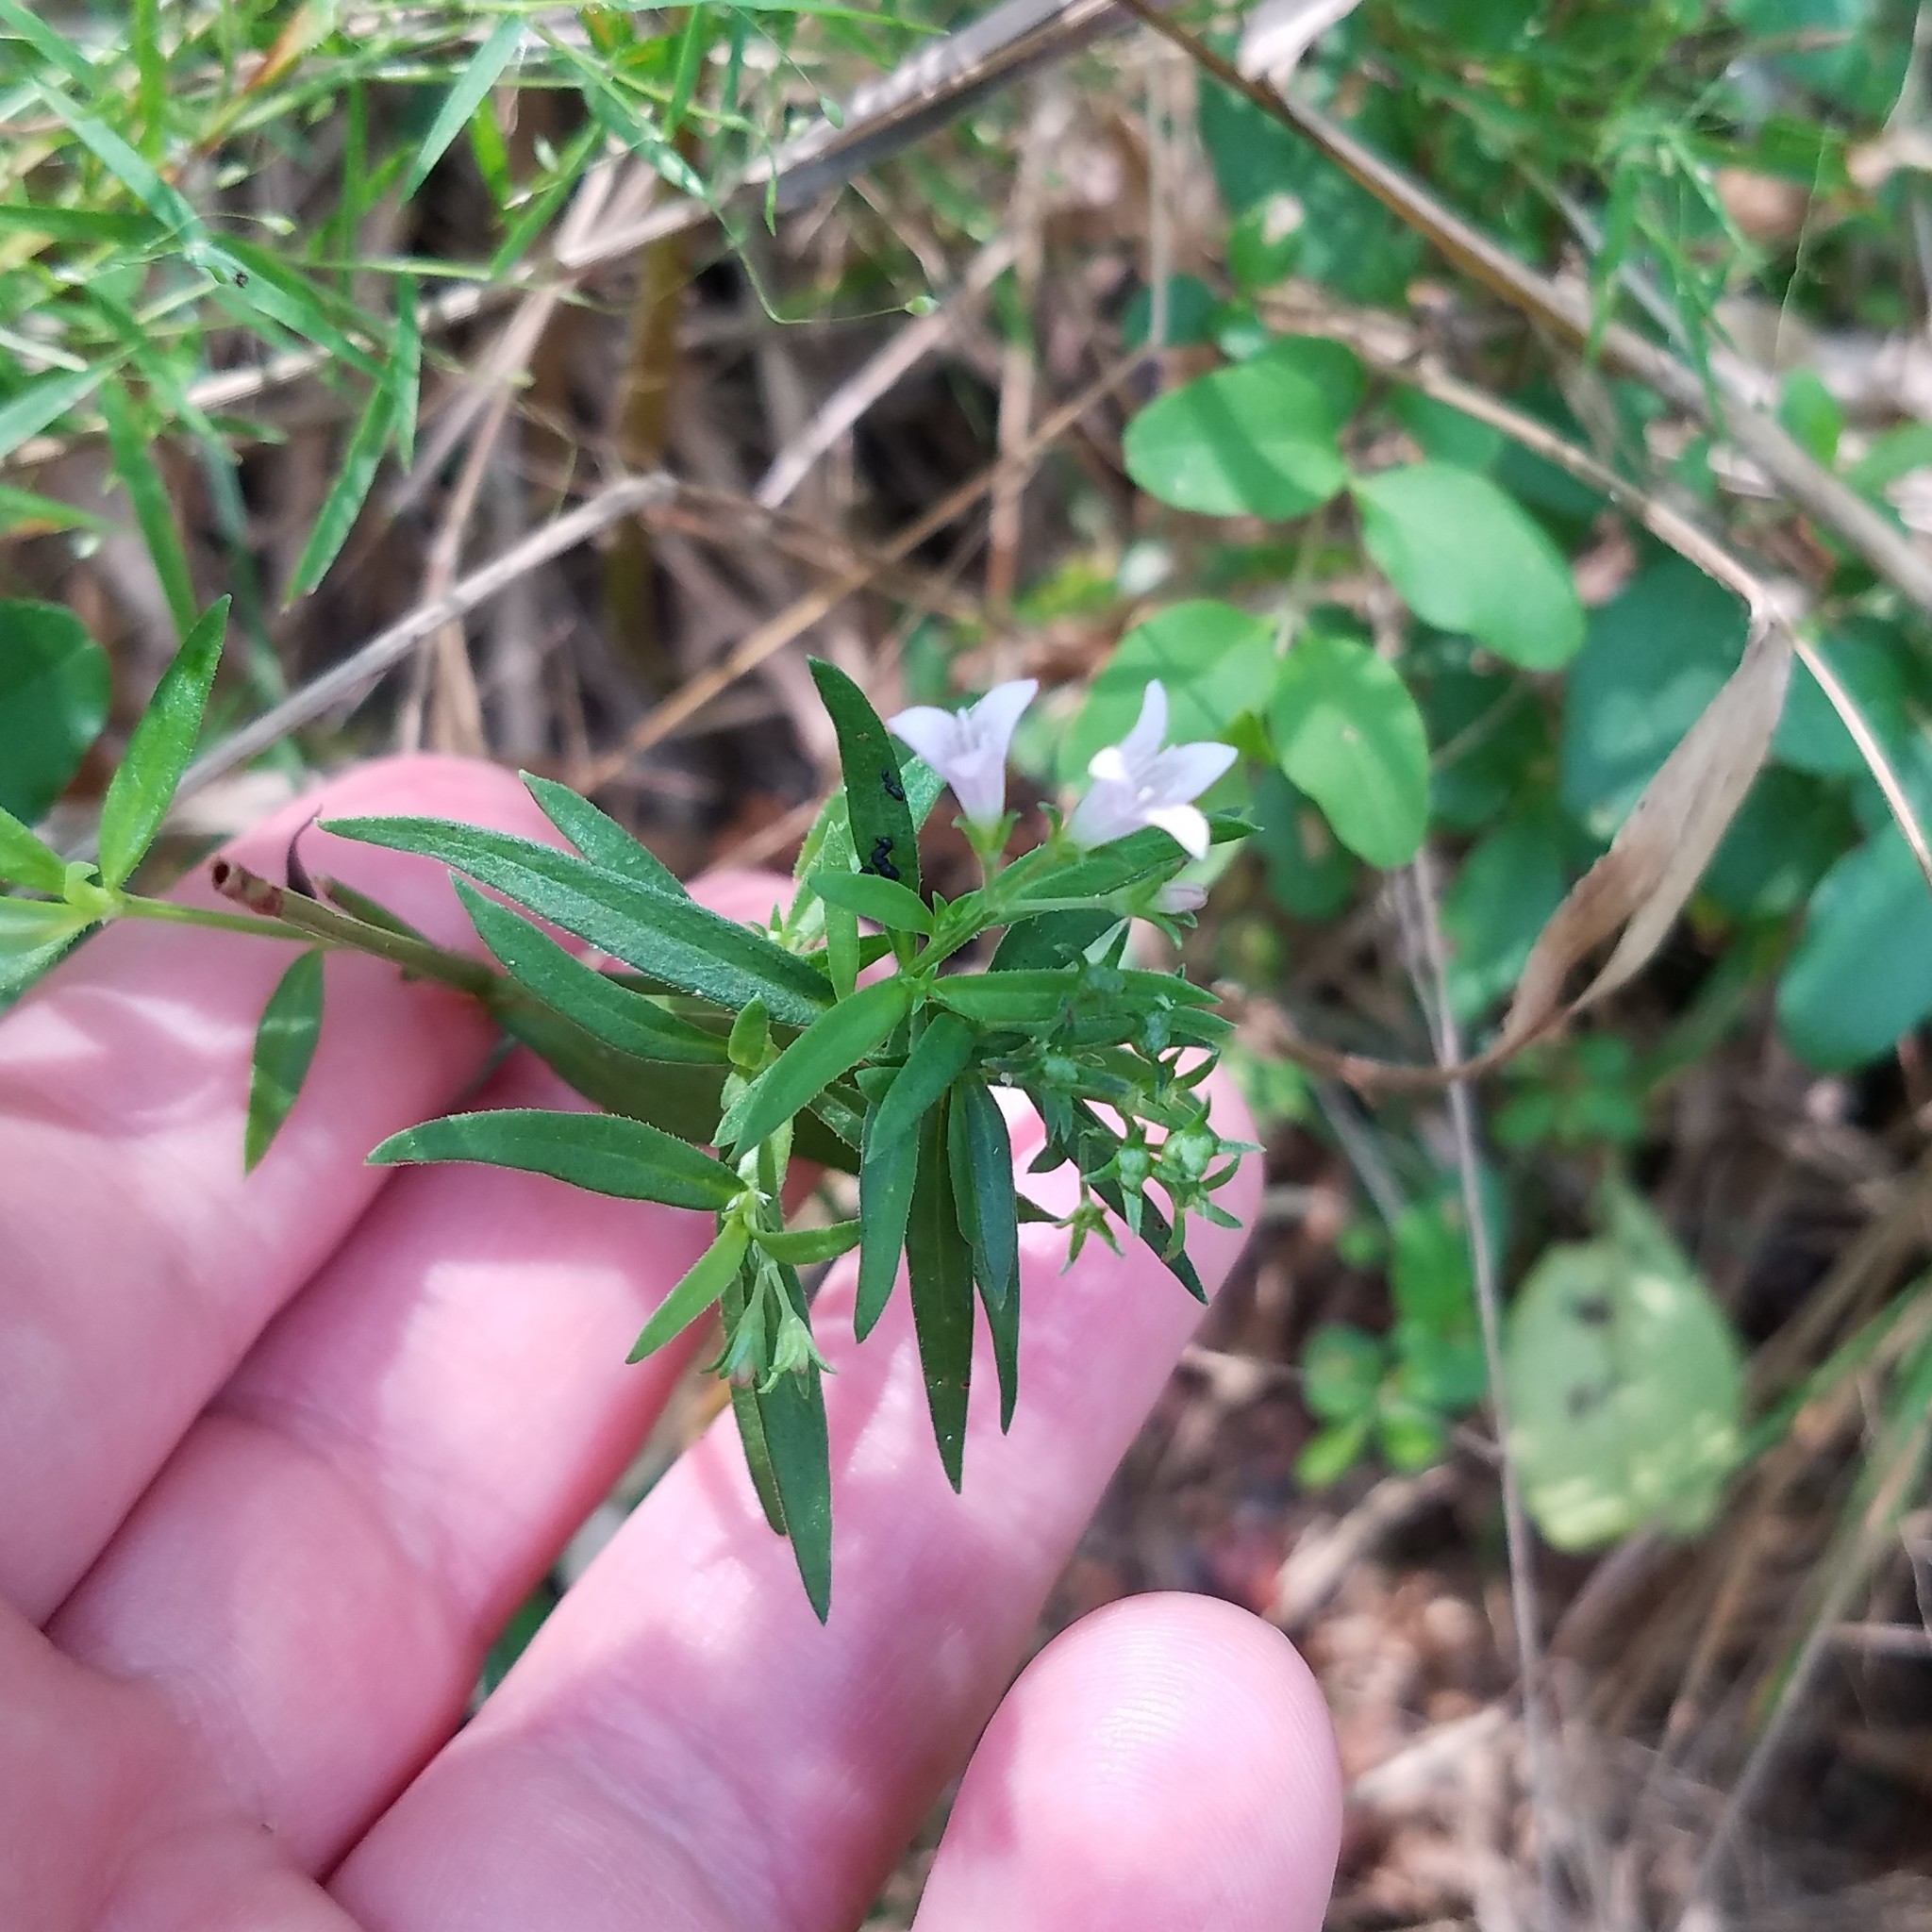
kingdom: Plantae
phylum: Tracheophyta
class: Magnoliopsida
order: Gentianales
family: Rubiaceae
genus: Houstonia
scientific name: Houstonia longifolia
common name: Long-leaved bluets
